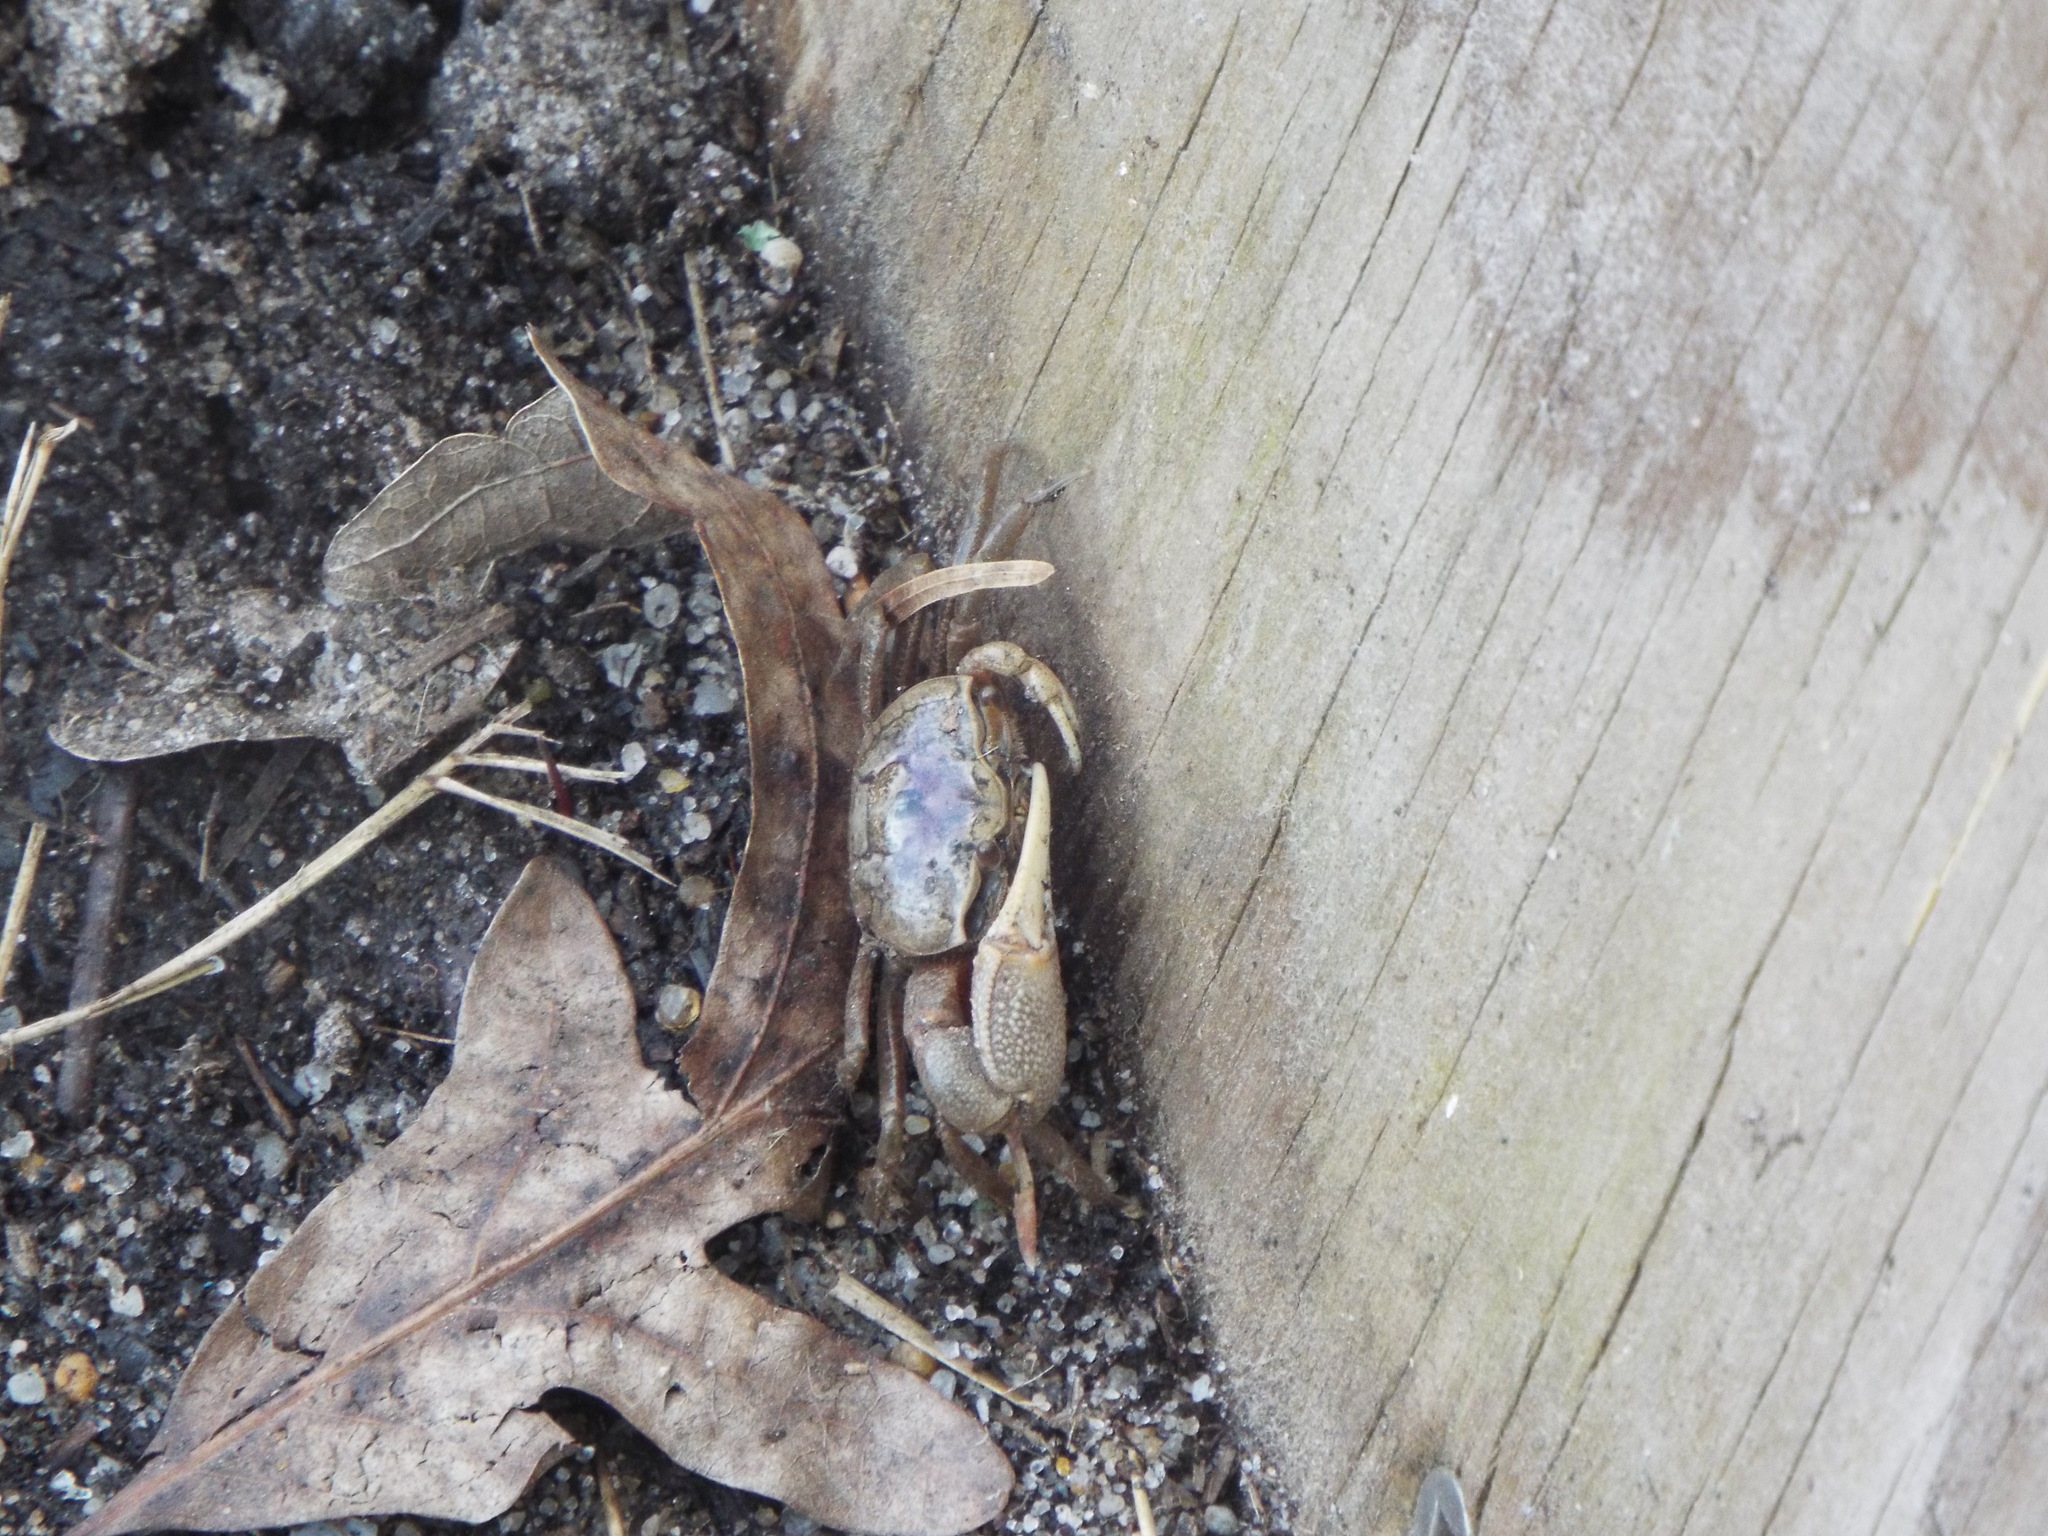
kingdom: Animalia
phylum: Arthropoda
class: Malacostraca
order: Decapoda
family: Ocypodidae
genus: Leptuca
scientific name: Leptuca pugilator
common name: Atlantic sand fiddler crab
